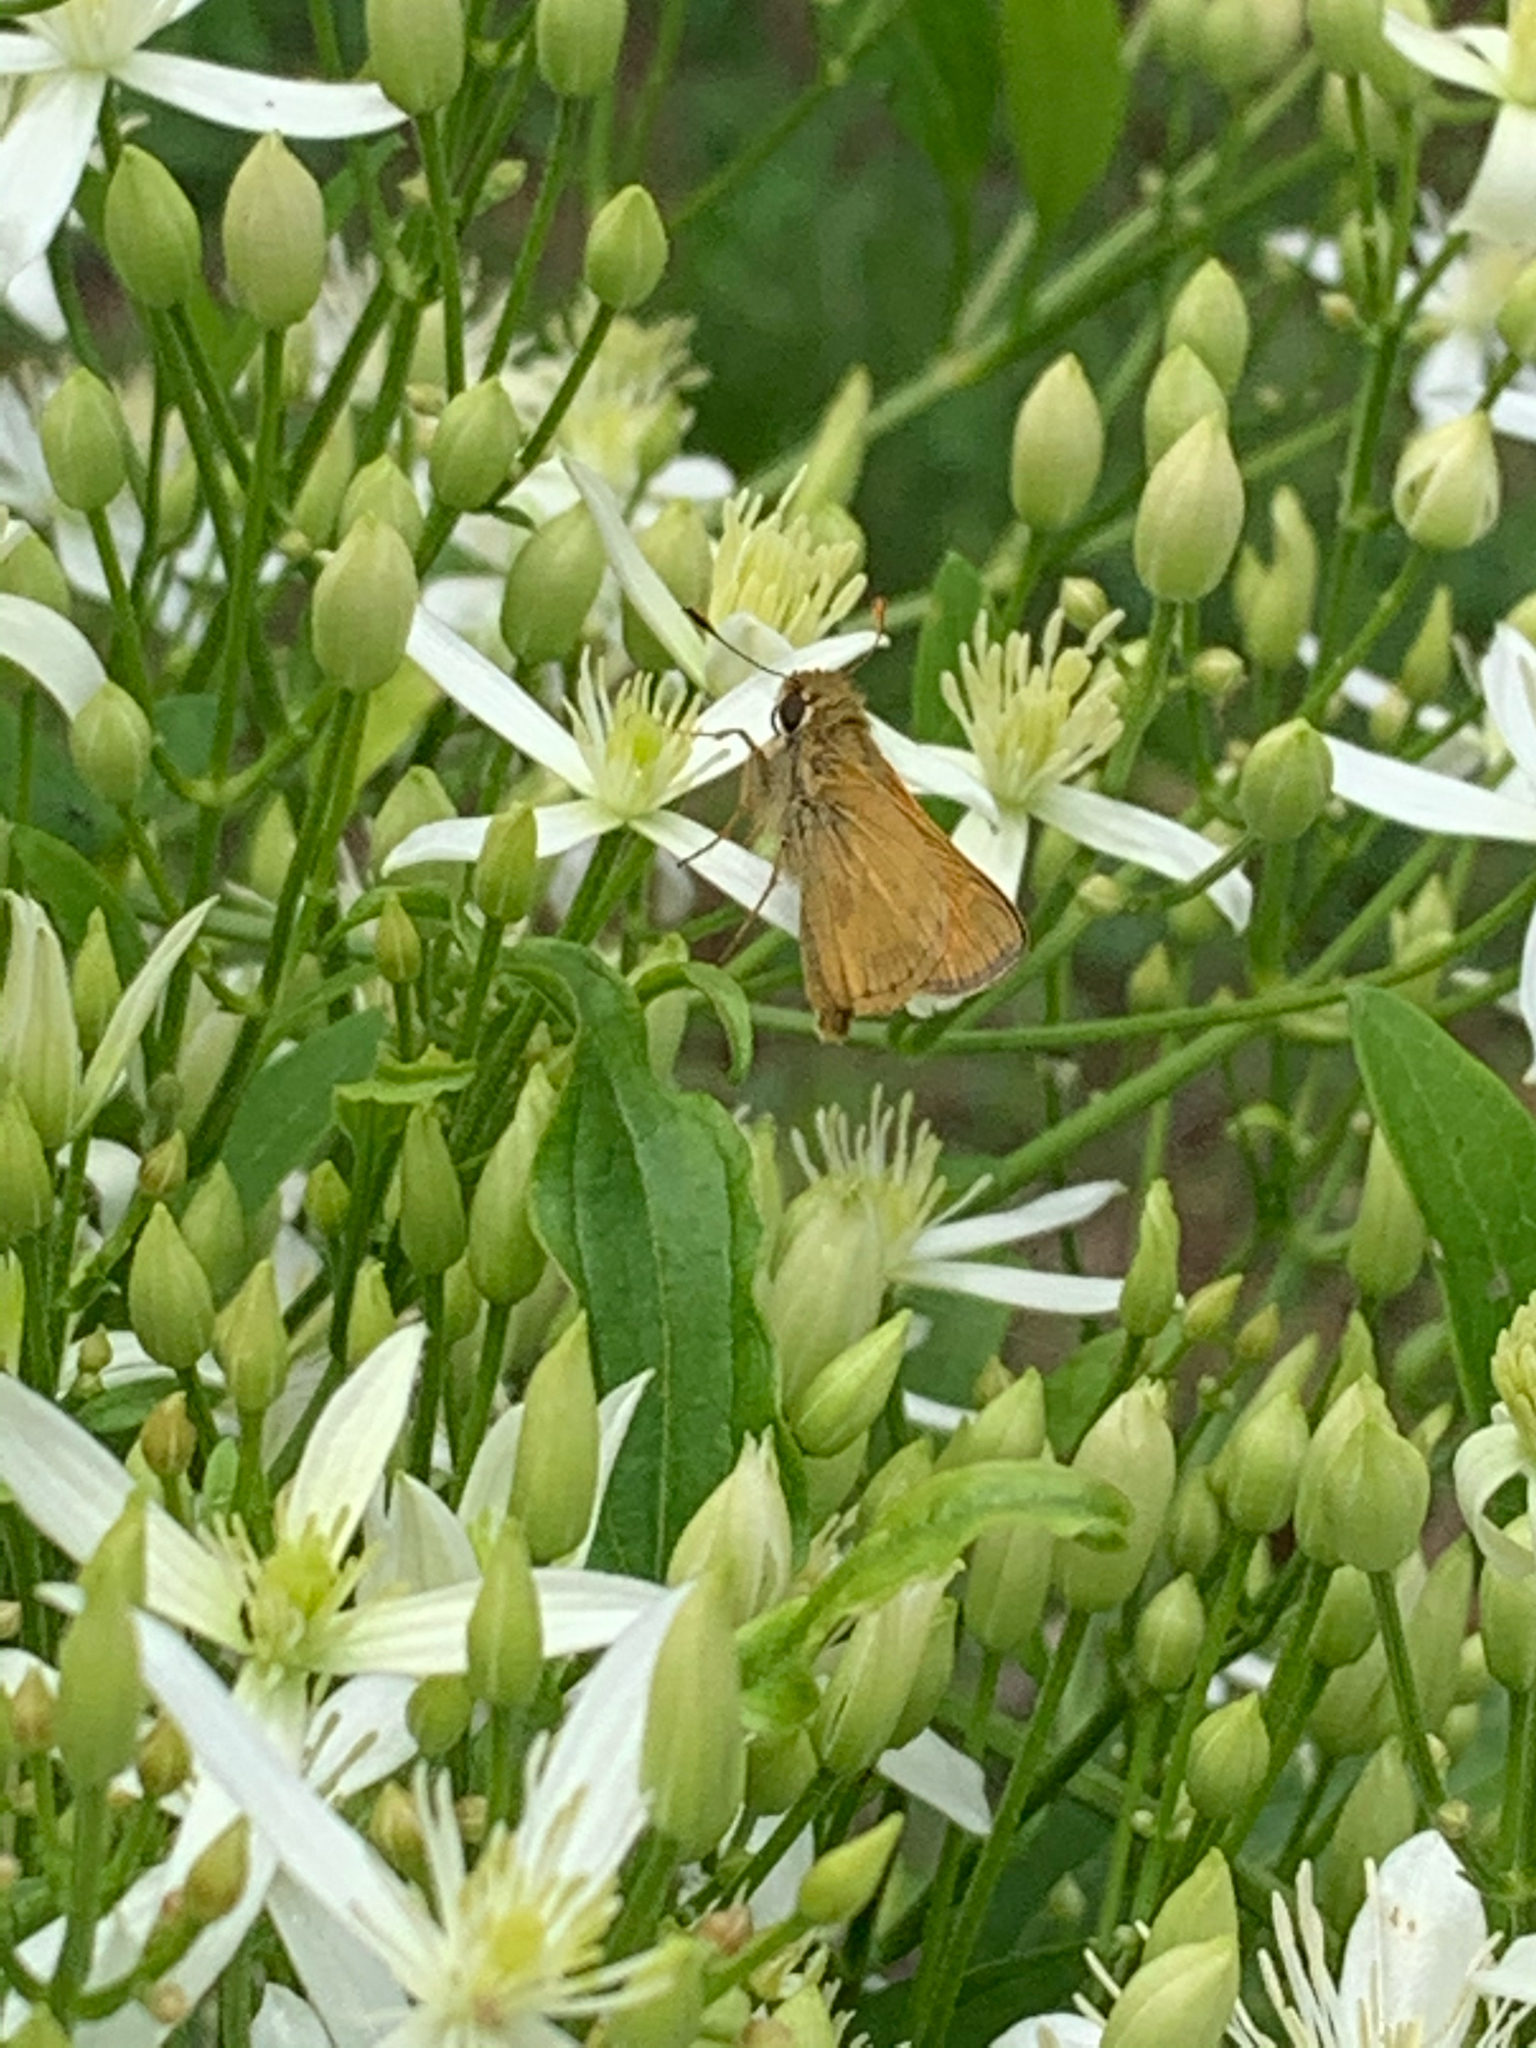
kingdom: Animalia
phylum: Arthropoda
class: Insecta
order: Lepidoptera
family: Hesperiidae
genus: Atalopedes
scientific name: Atalopedes
